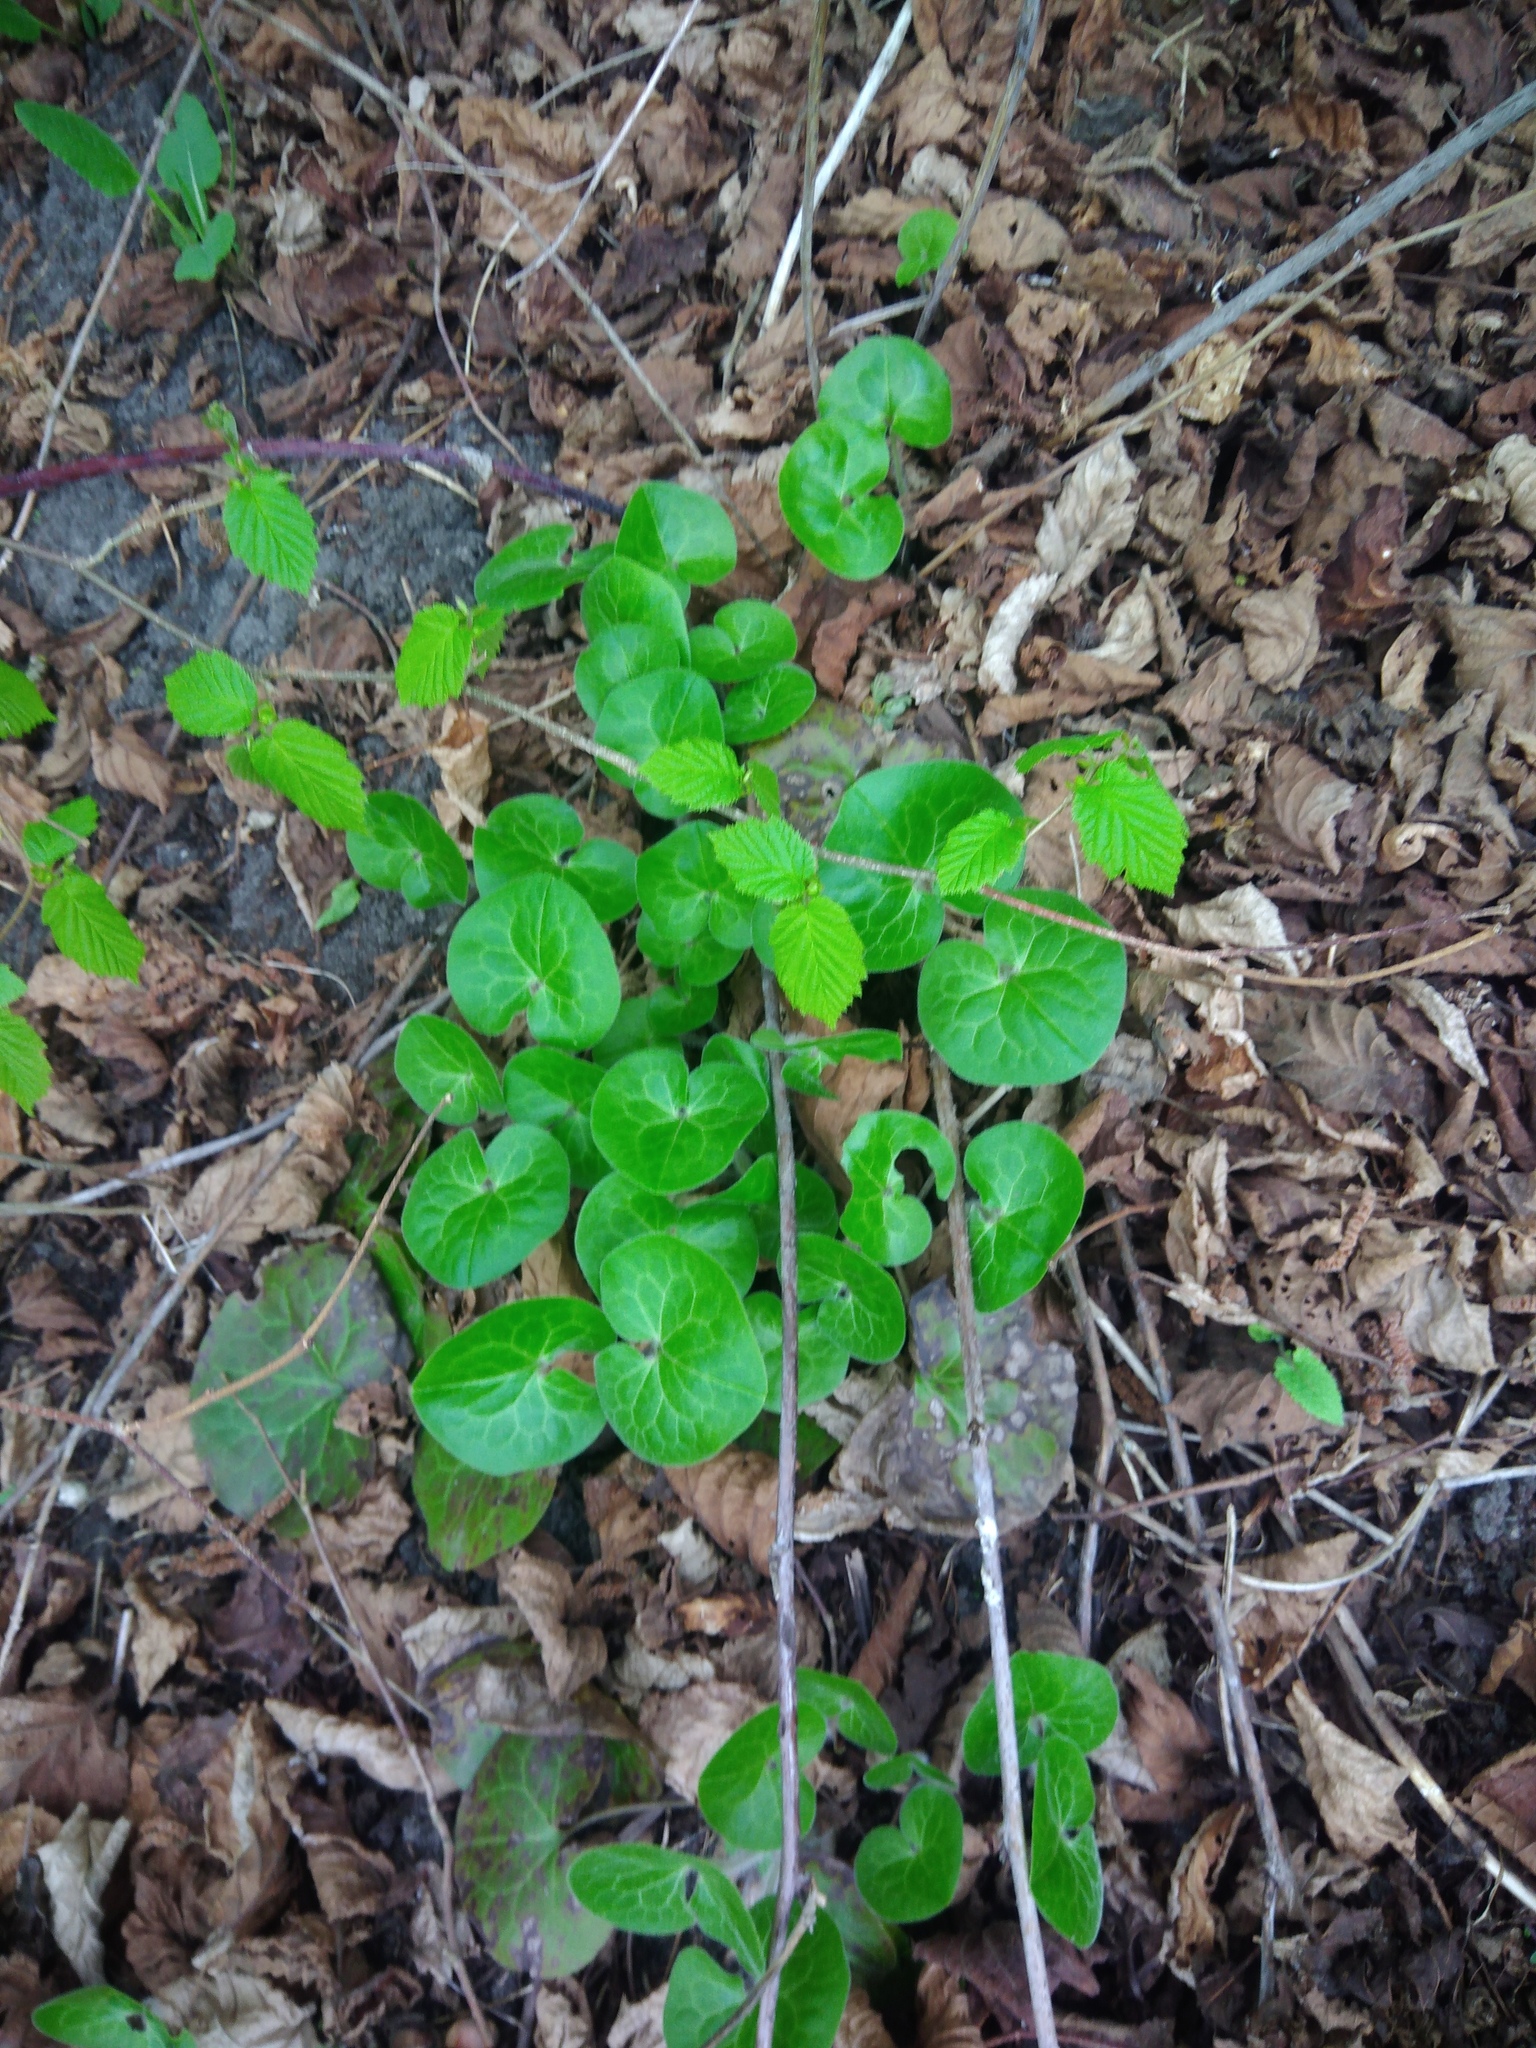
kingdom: Plantae
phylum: Tracheophyta
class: Magnoliopsida
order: Piperales
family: Aristolochiaceae
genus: Asarum
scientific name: Asarum europaeum
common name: Asarabacca
